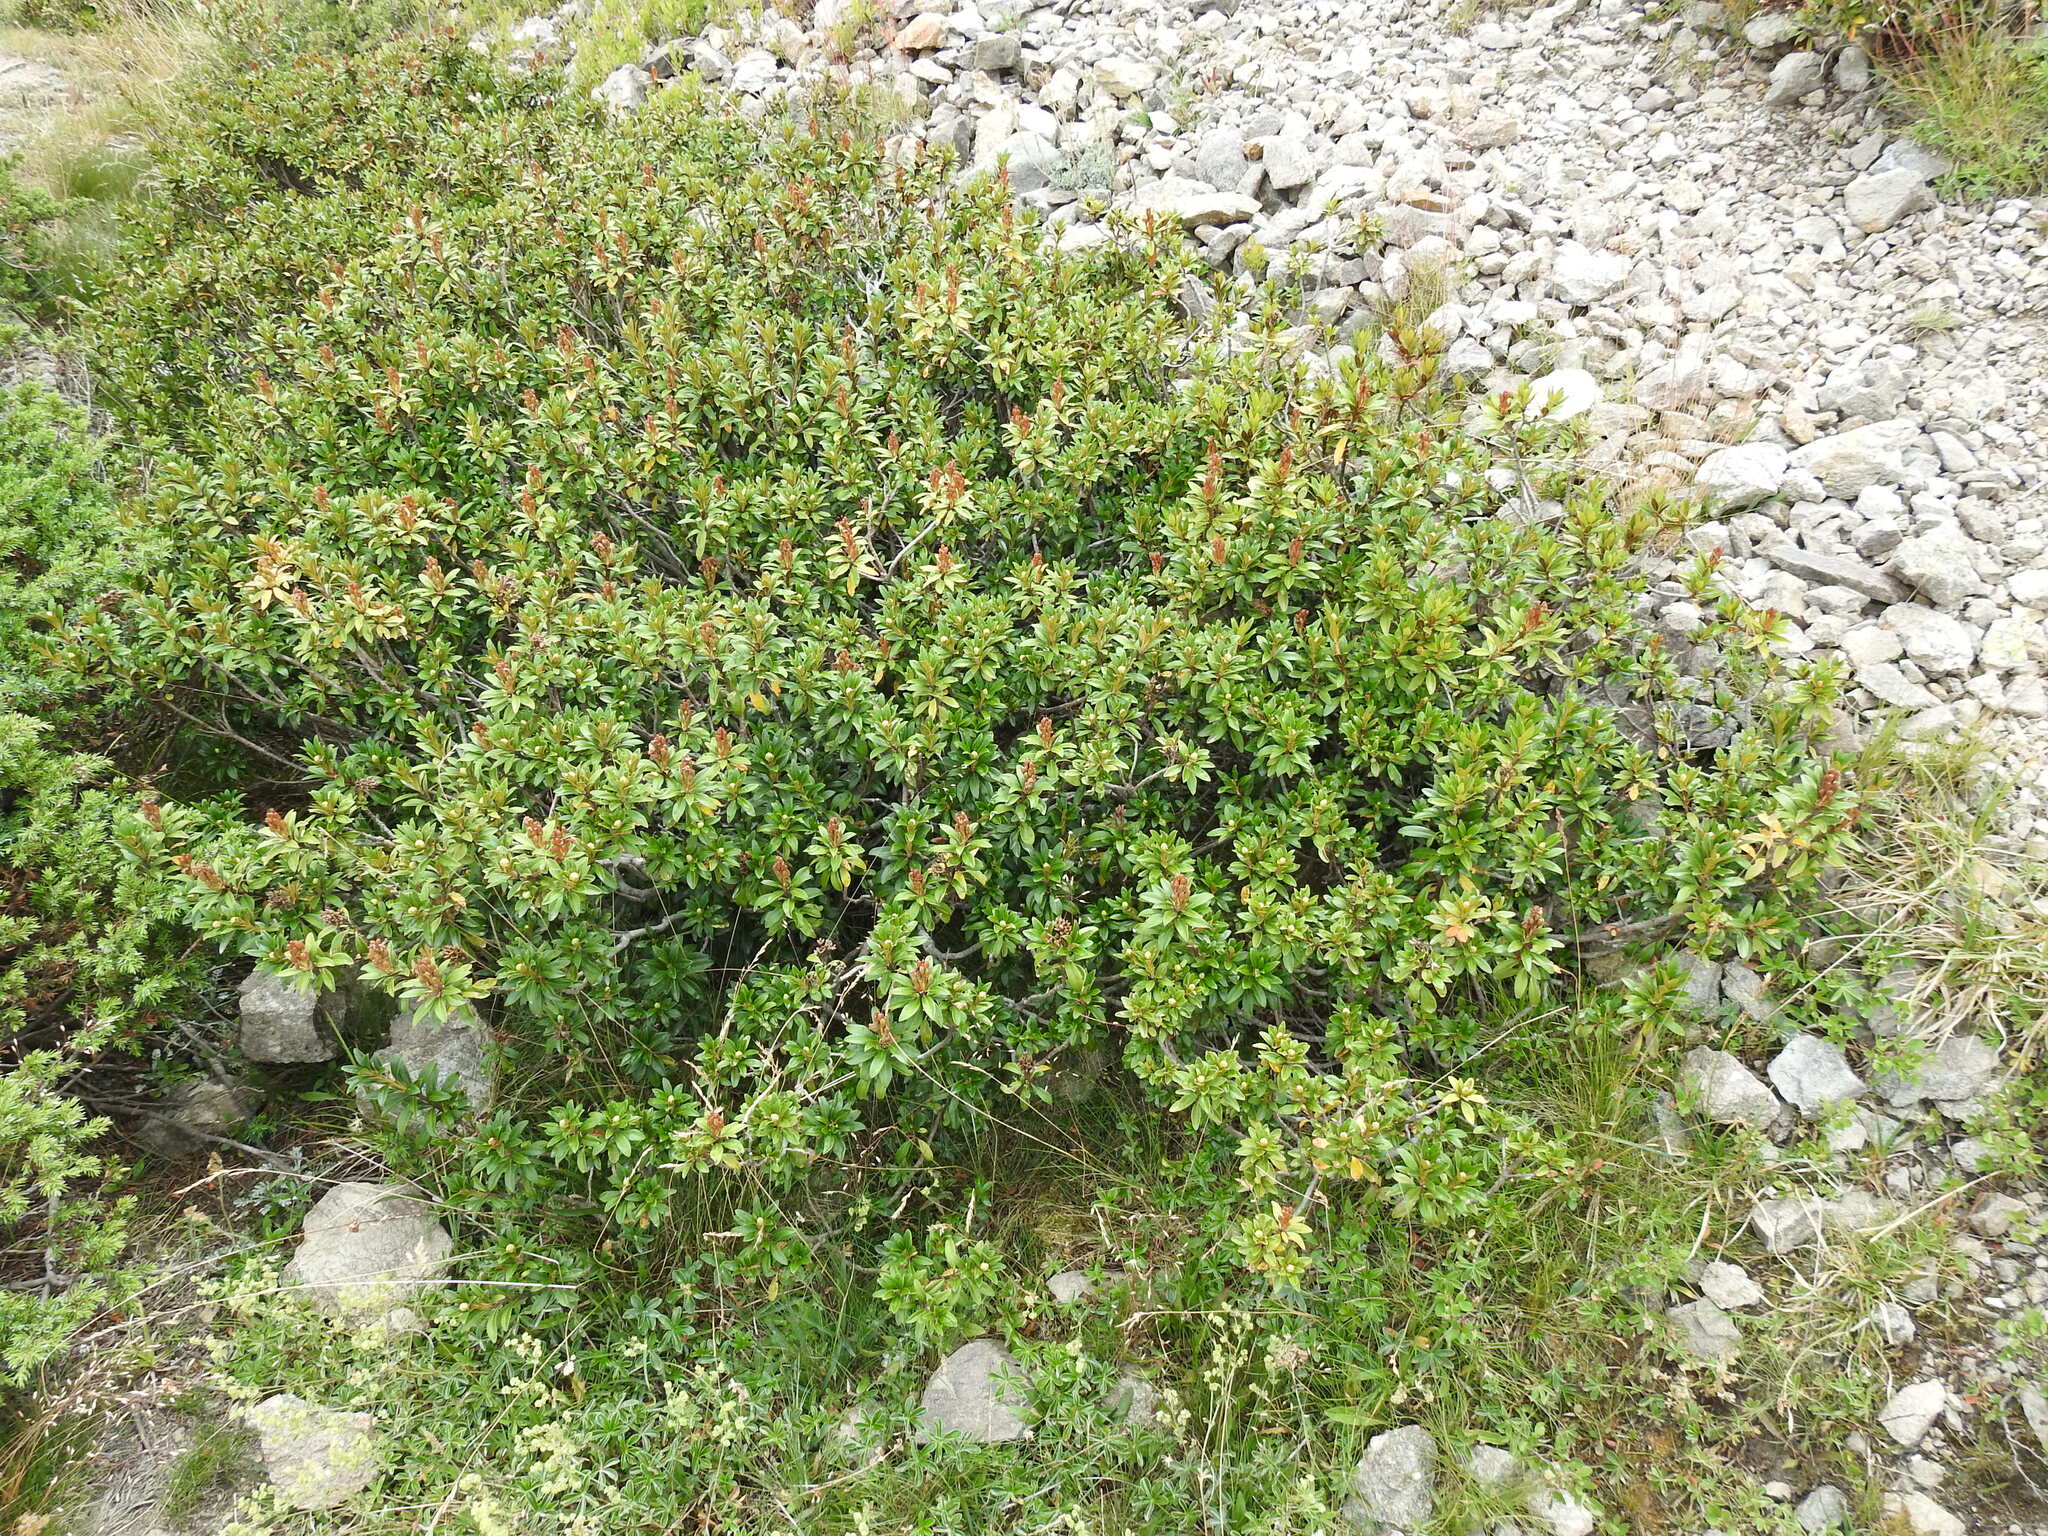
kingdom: Plantae
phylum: Tracheophyta
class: Magnoliopsida
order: Ericales
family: Ericaceae
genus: Rhododendron
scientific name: Rhododendron ferrugineum
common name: Alpenrose
